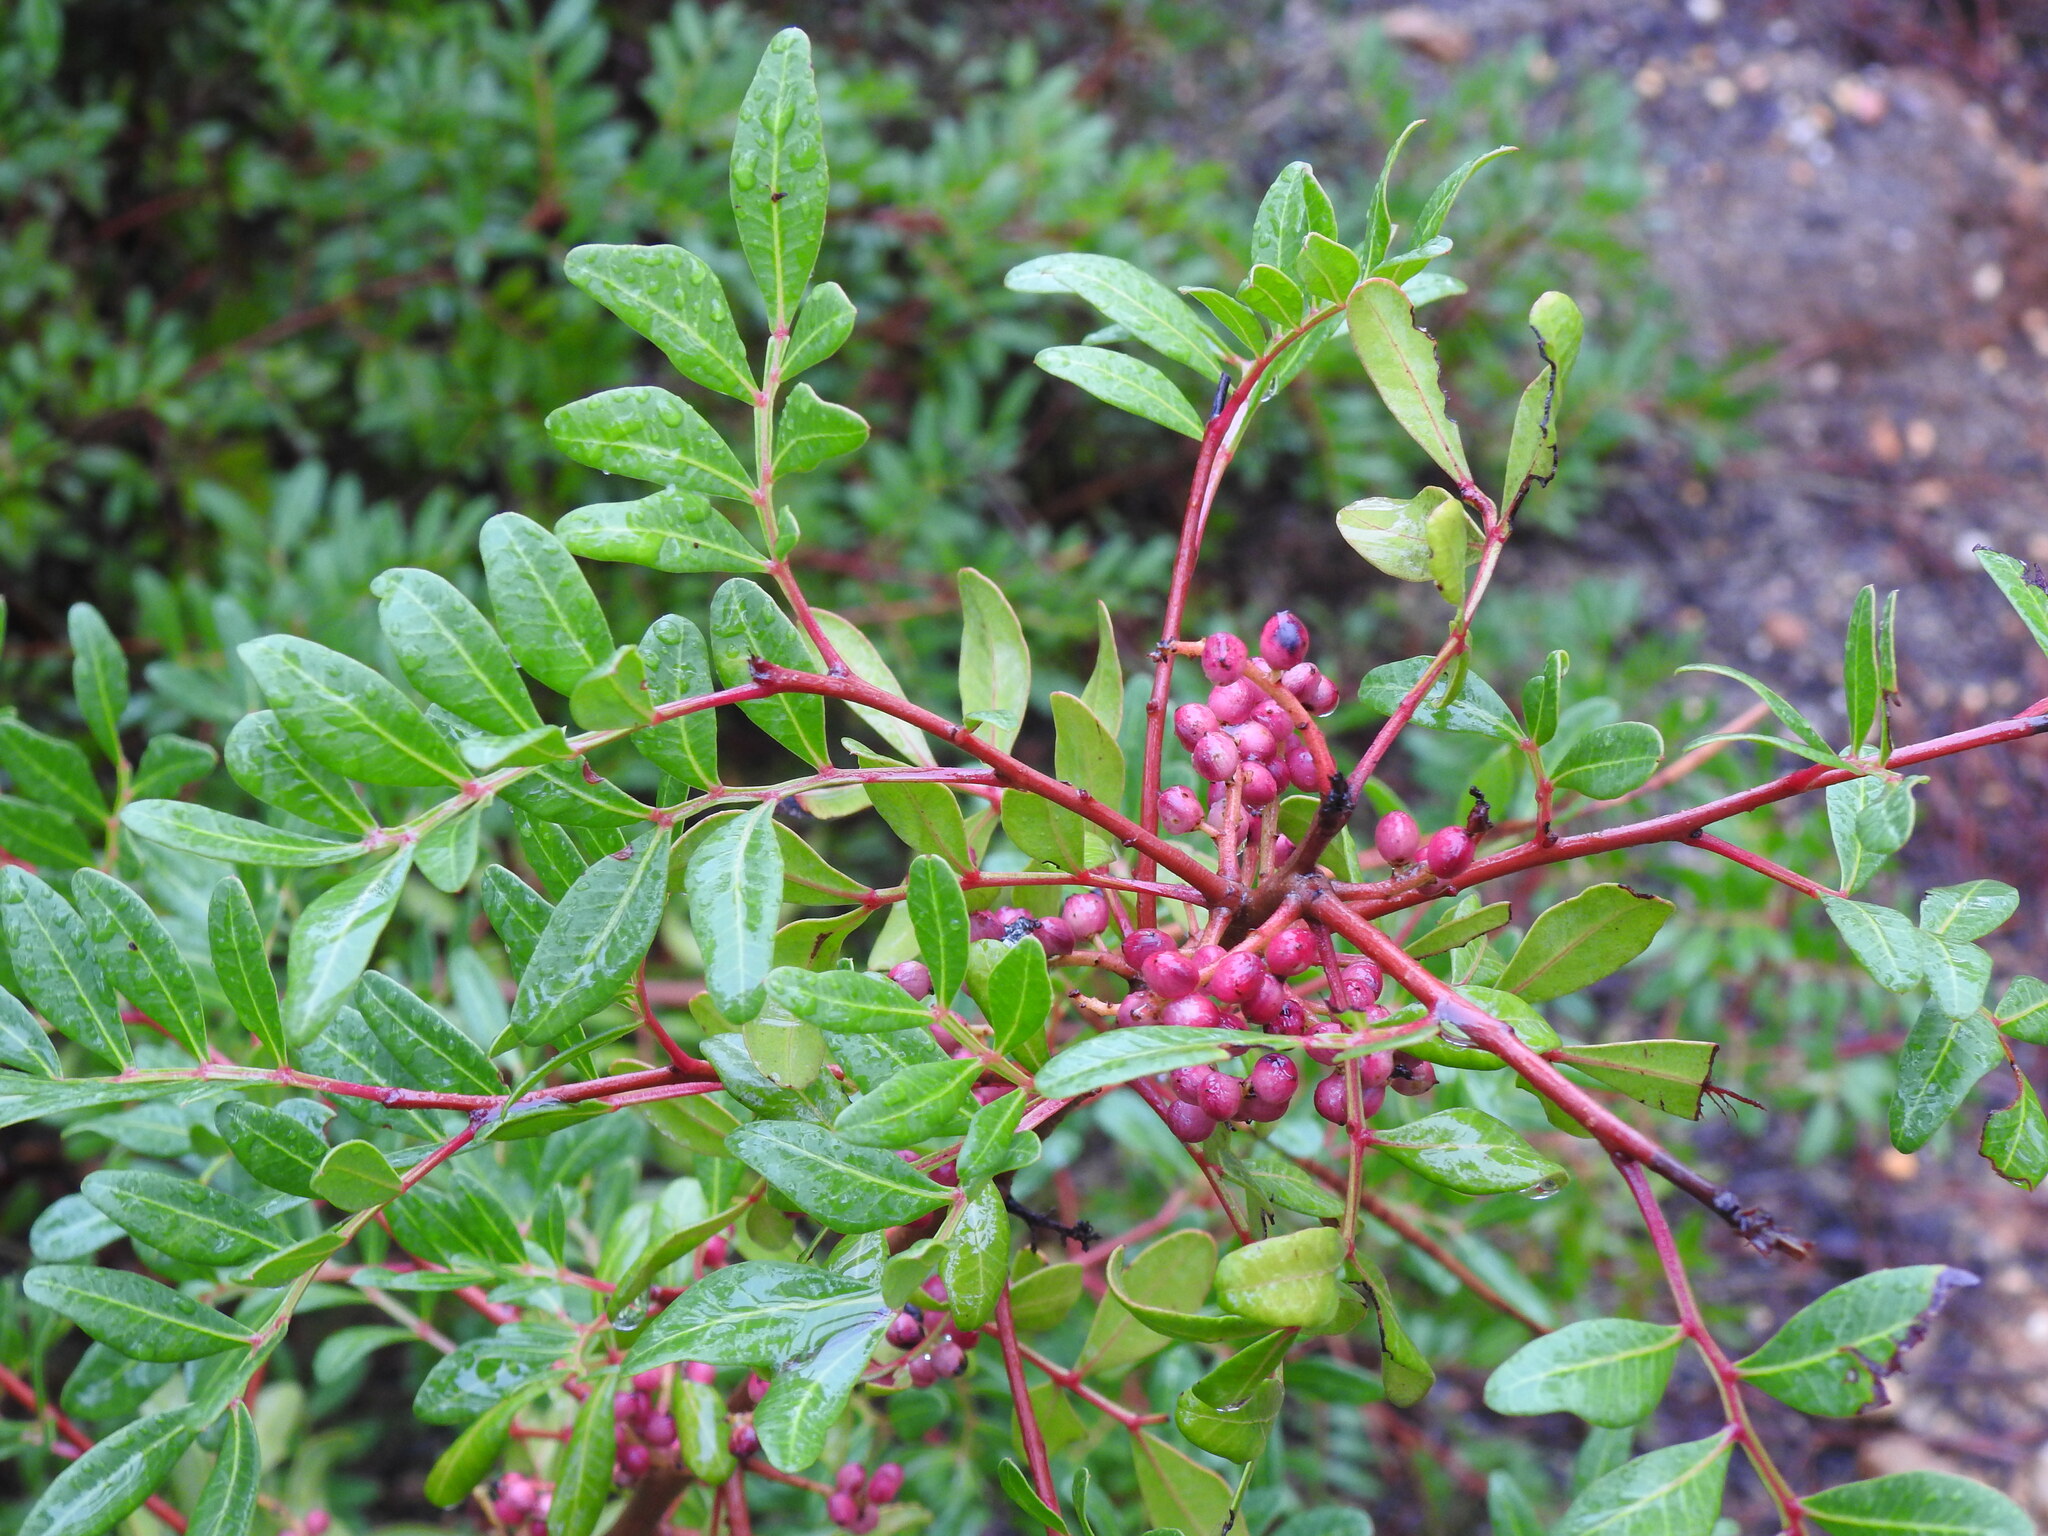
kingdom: Plantae
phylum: Tracheophyta
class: Magnoliopsida
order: Sapindales
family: Anacardiaceae
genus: Pistacia
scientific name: Pistacia lentiscus
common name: Lentisk
